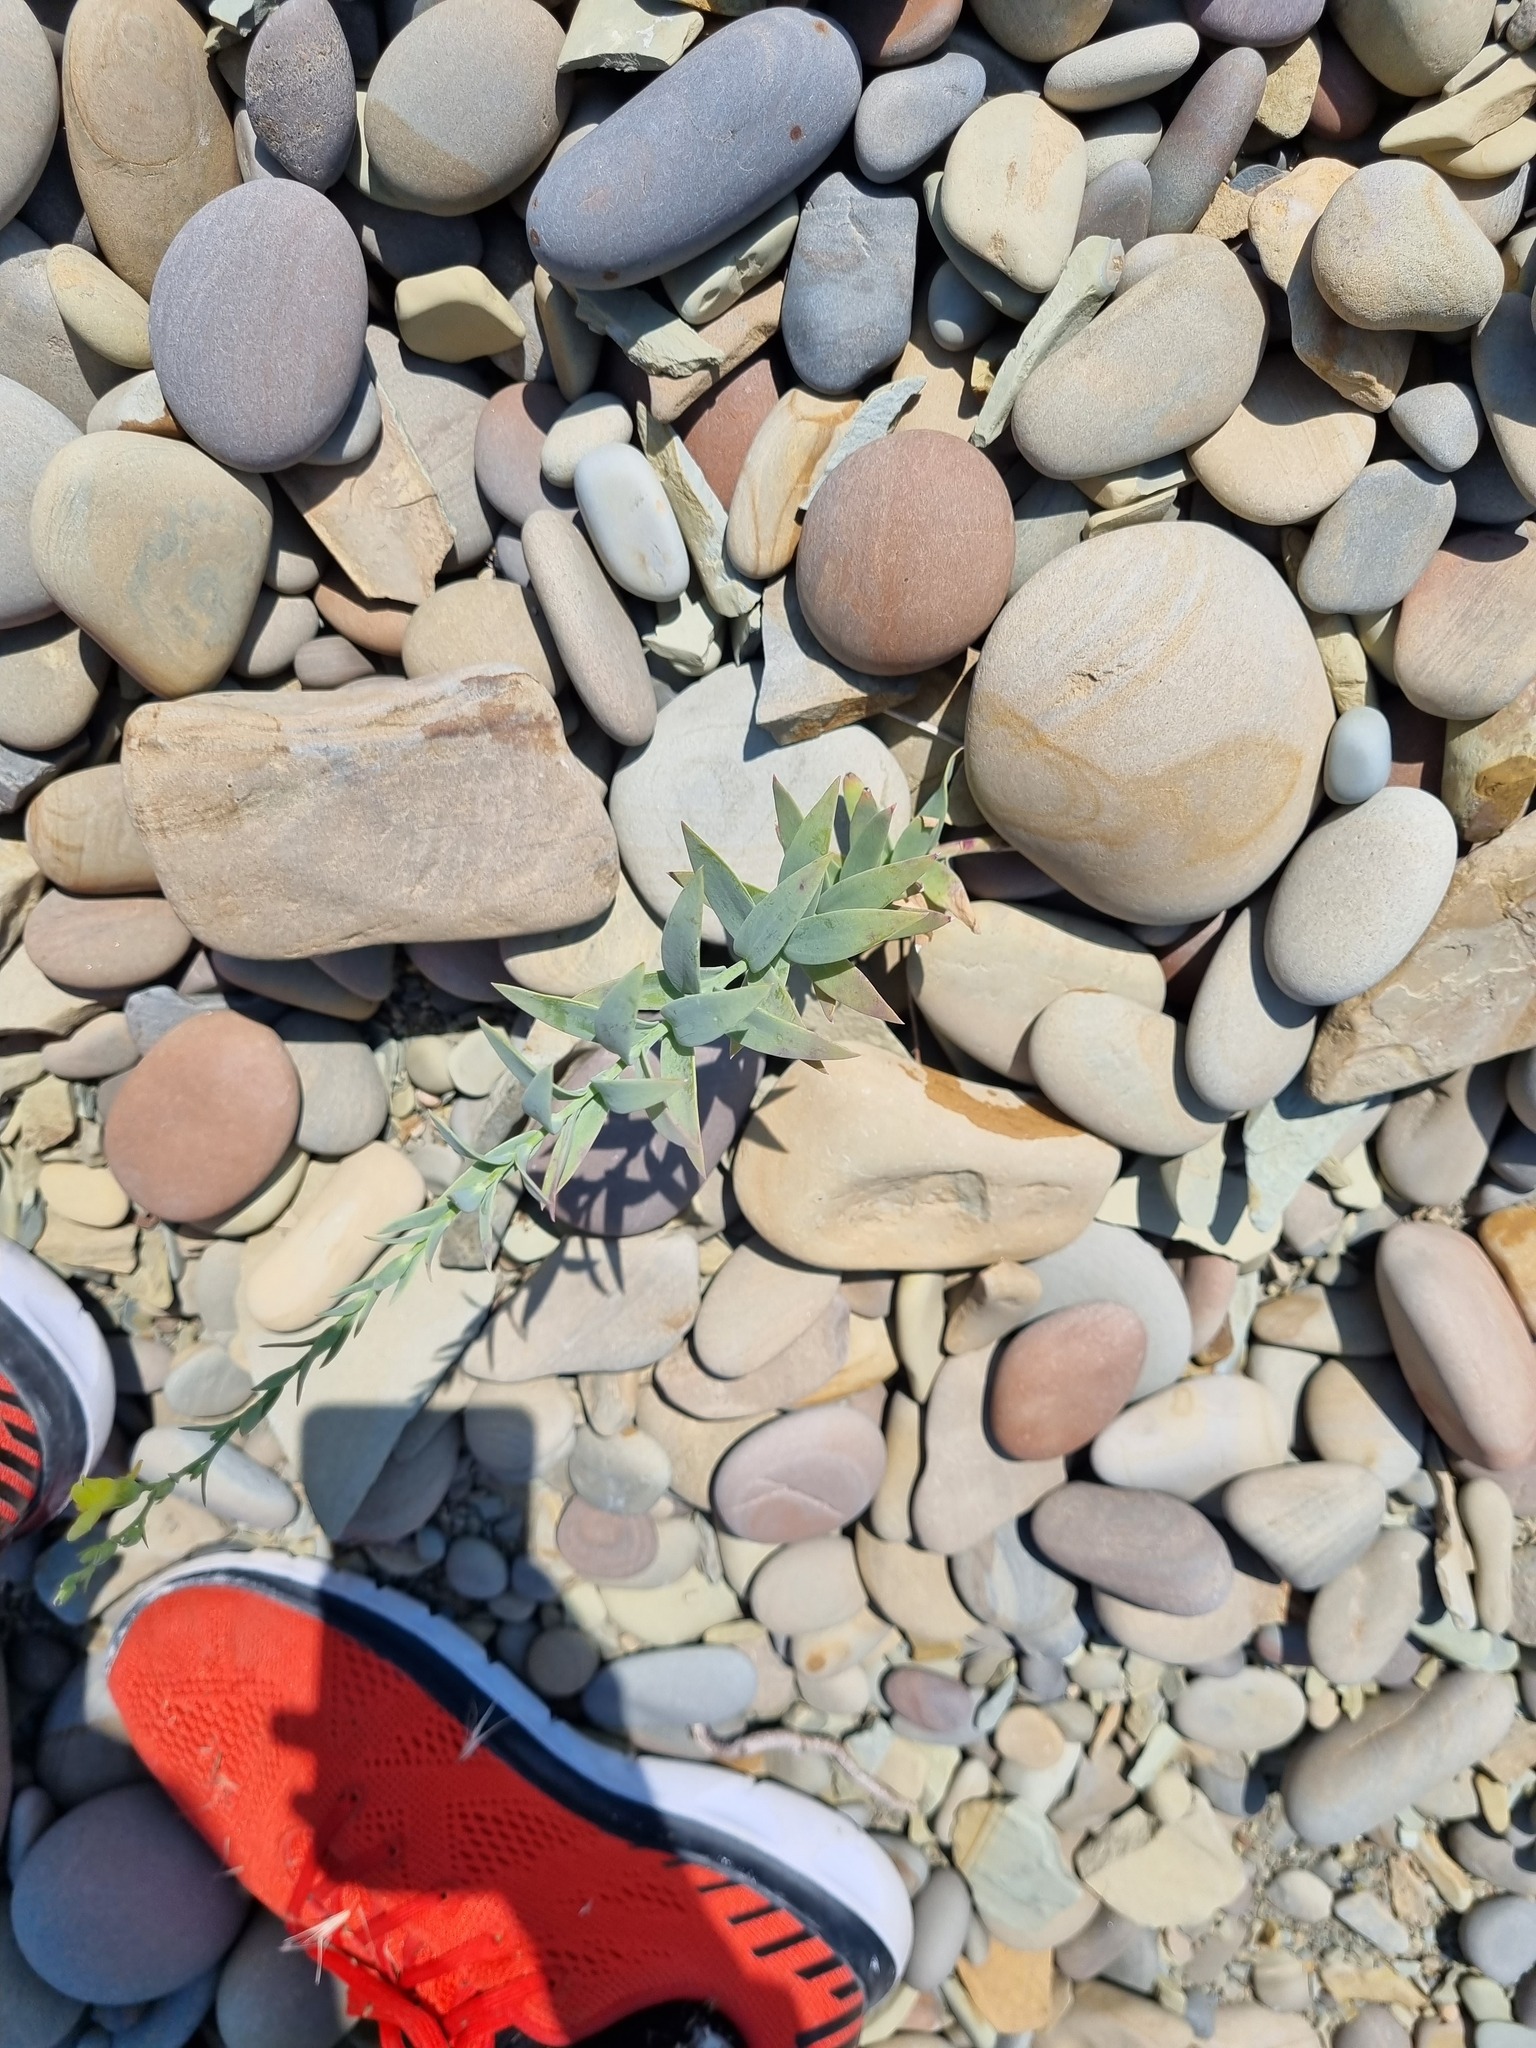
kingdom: Plantae
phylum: Tracheophyta
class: Magnoliopsida
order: Lamiales
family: Plantaginaceae
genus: Linaria
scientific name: Linaria genistifolia
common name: Broomleaf toadflax
